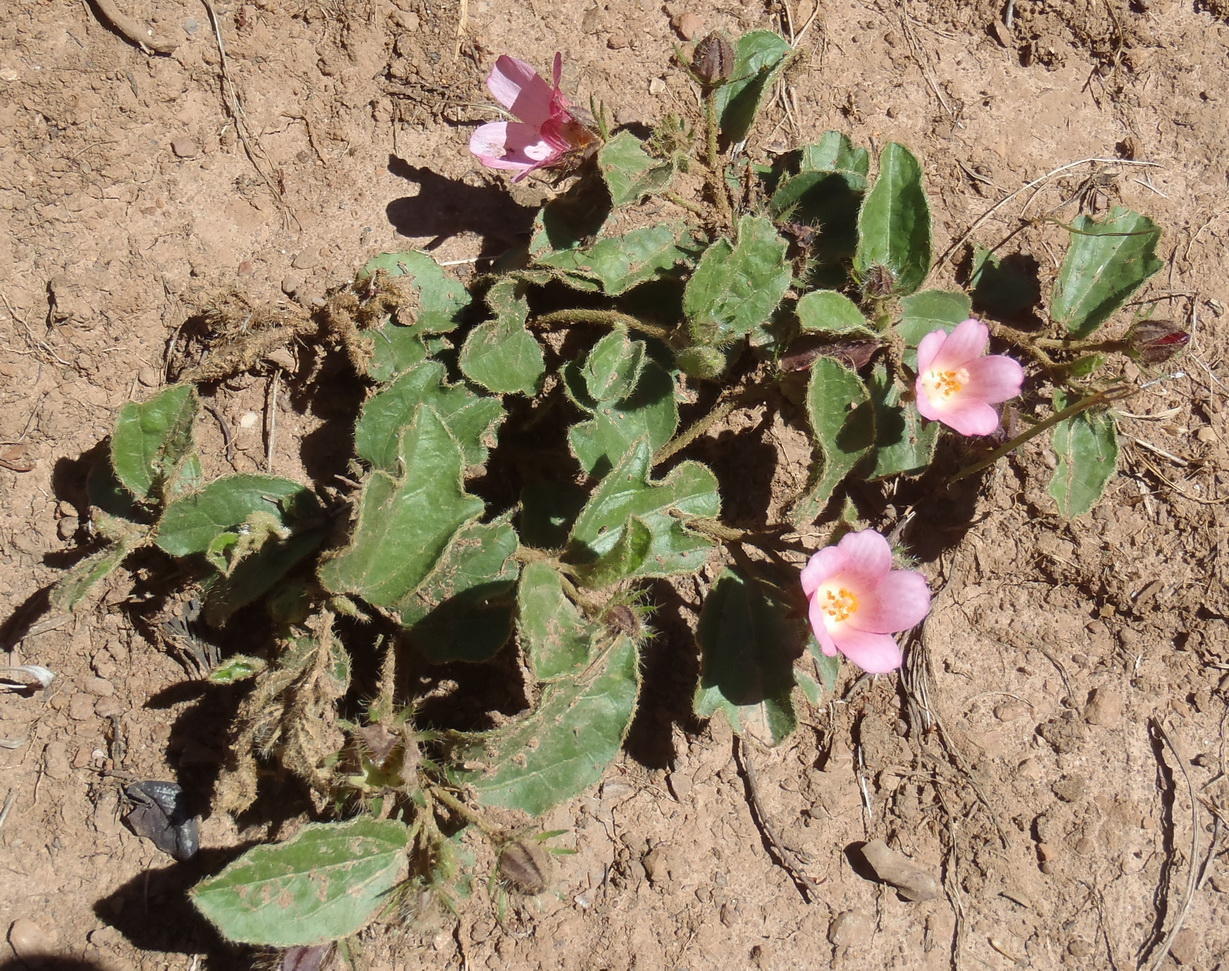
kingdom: Plantae
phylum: Tracheophyta
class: Magnoliopsida
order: Malvales
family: Malvaceae
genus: Hibiscus
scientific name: Hibiscus aethiopicus
